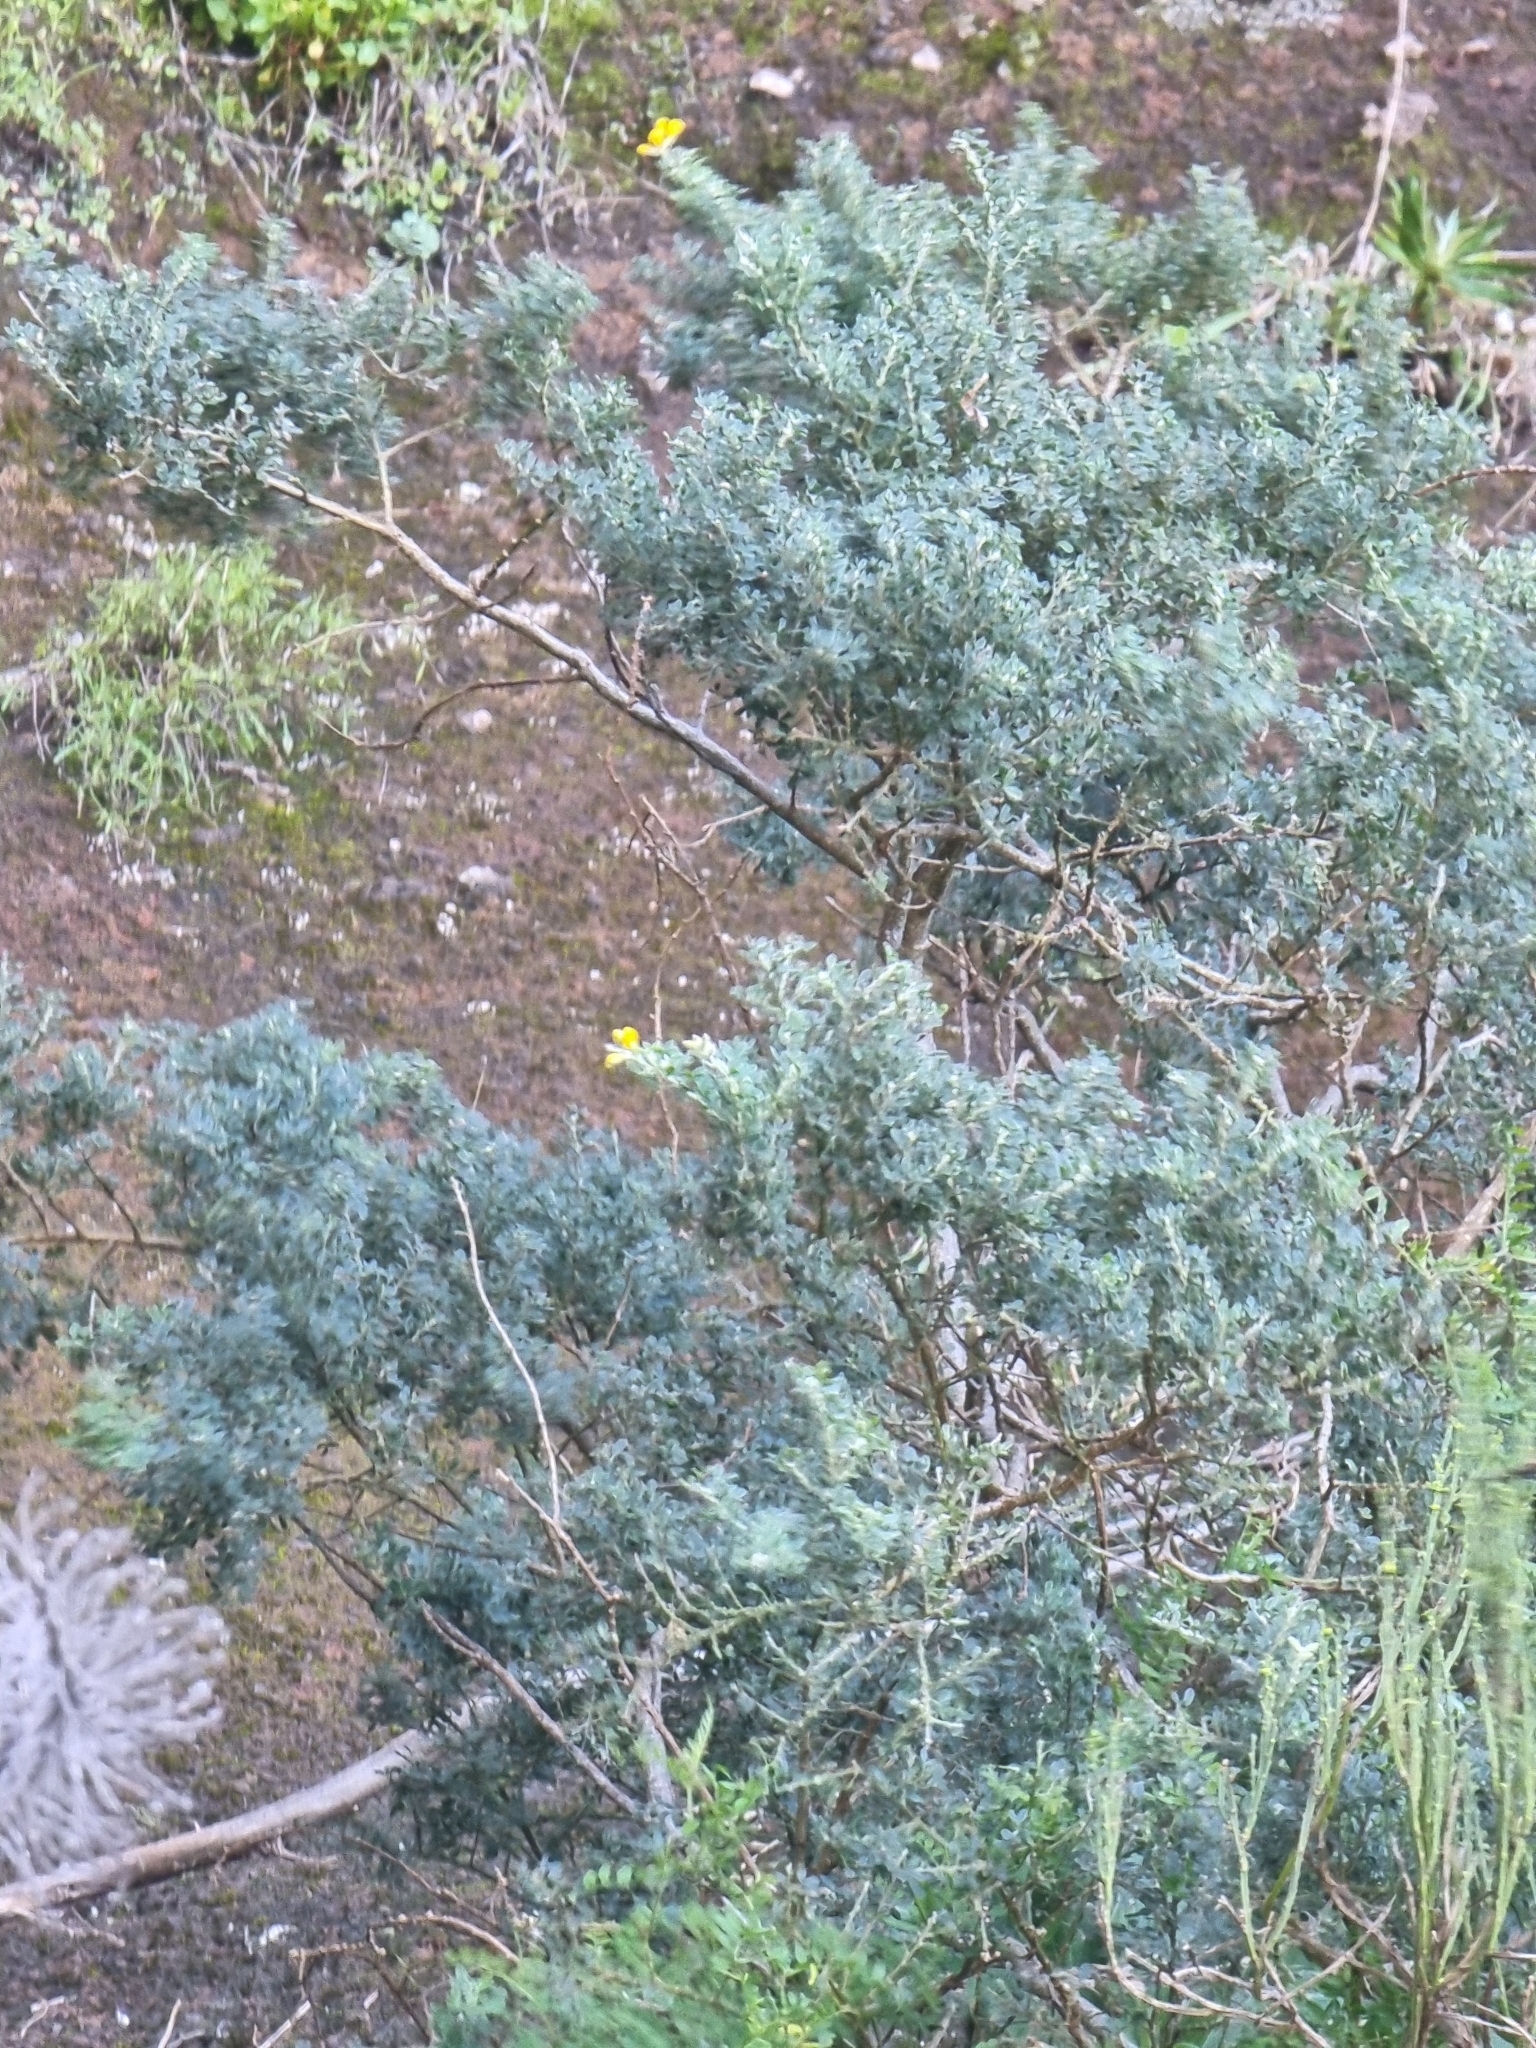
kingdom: Plantae
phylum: Tracheophyta
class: Magnoliopsida
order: Fabales
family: Fabaceae
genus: Genista
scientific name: Genista maderensis
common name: Madeira dyer's greenweed
